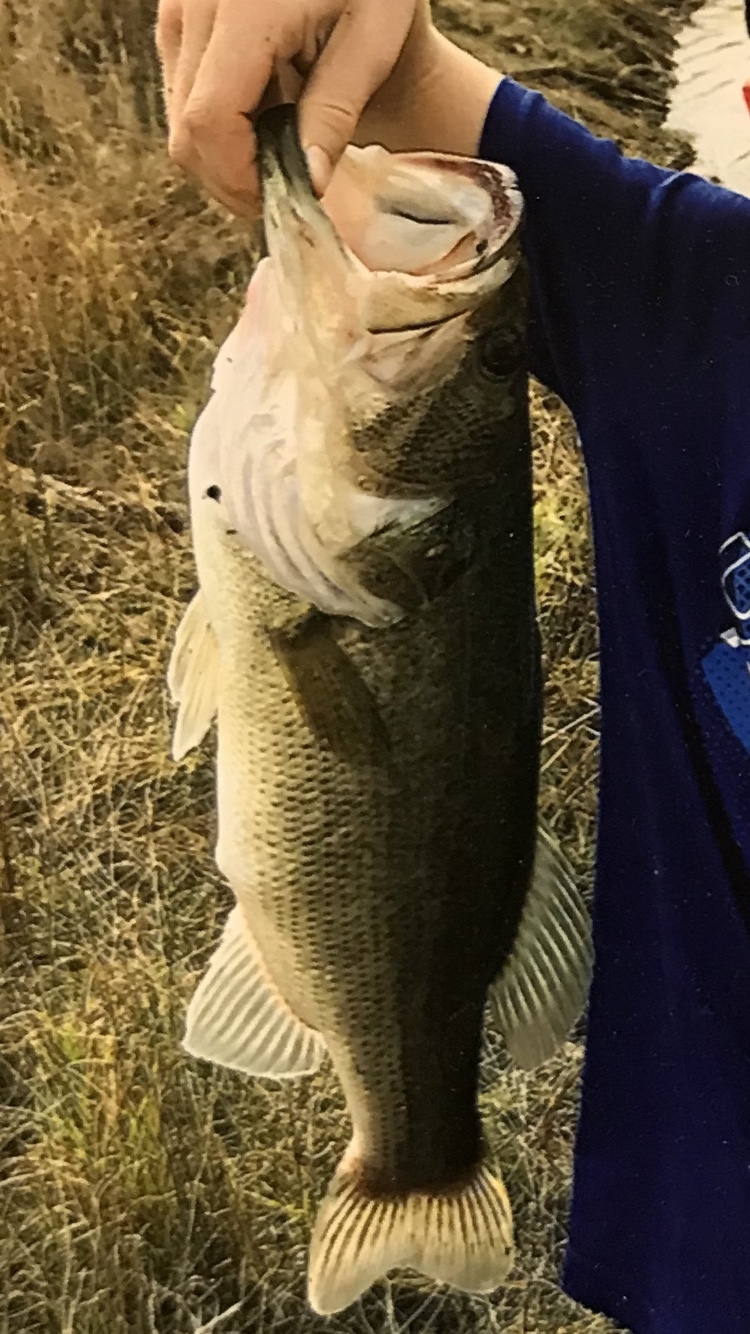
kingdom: Animalia
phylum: Chordata
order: Perciformes
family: Centrarchidae
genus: Micropterus
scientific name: Micropterus
